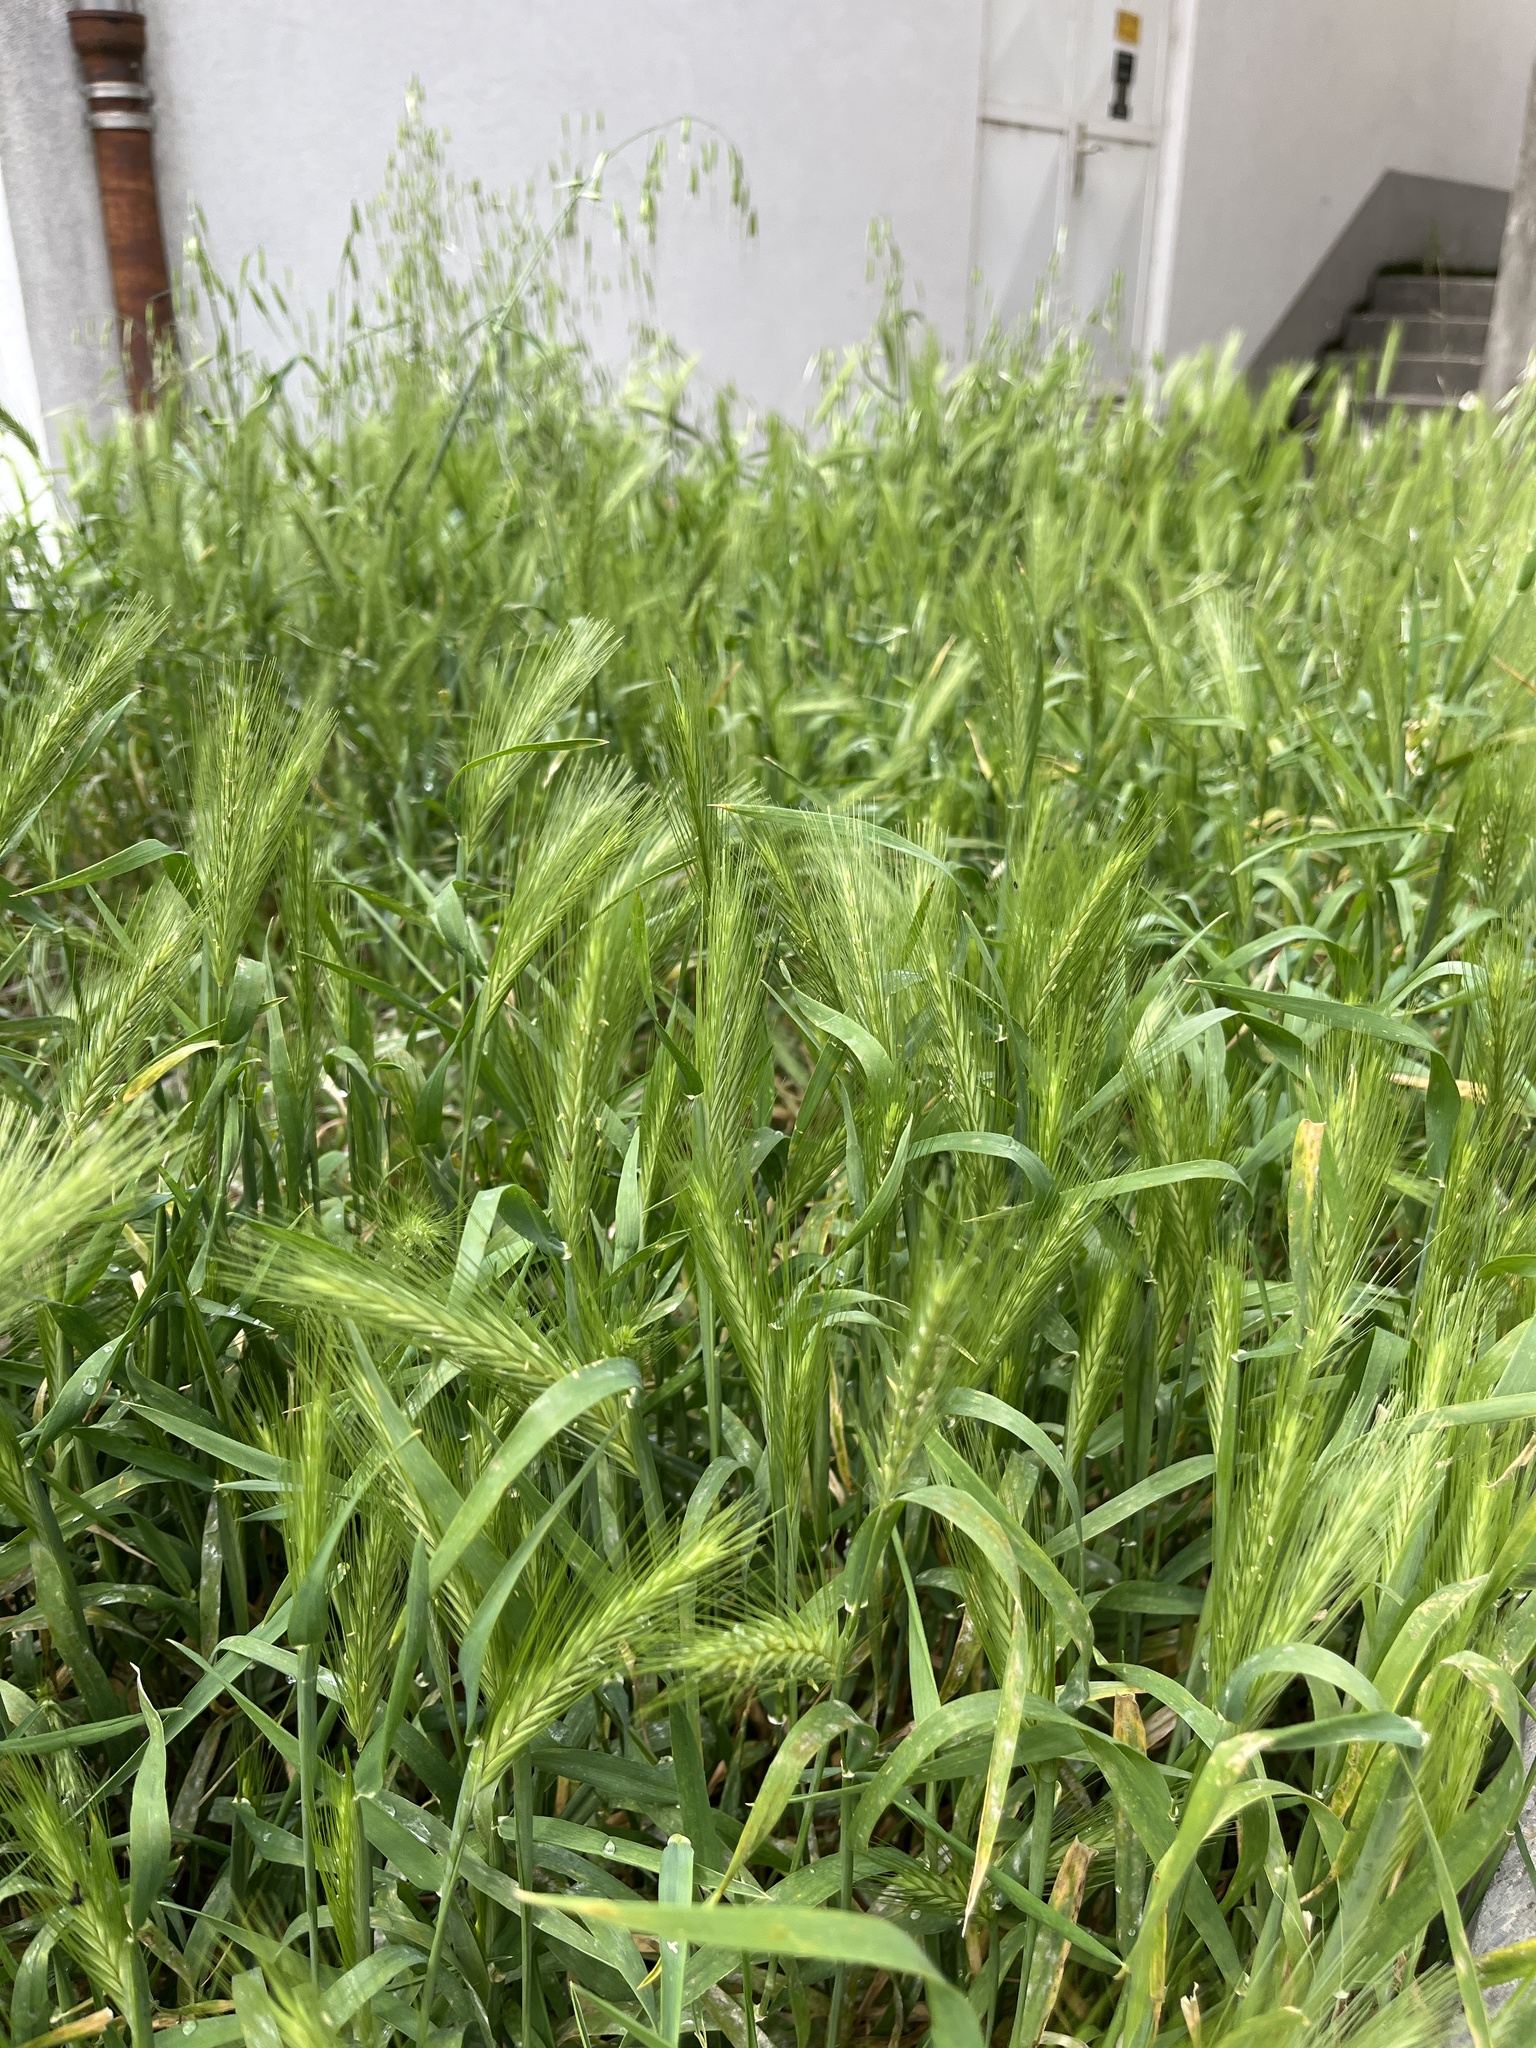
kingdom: Plantae
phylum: Tracheophyta
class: Liliopsida
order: Poales
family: Poaceae
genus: Hordeum
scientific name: Hordeum murinum
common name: Wall barley
